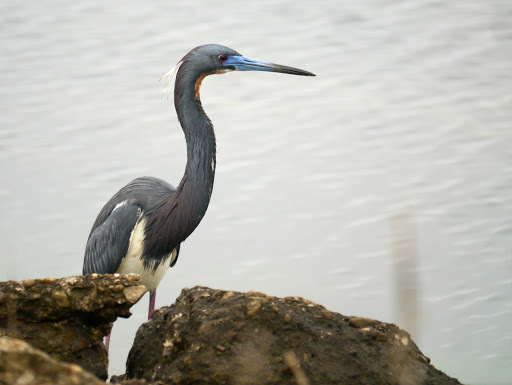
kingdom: Animalia
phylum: Chordata
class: Aves
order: Pelecaniformes
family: Ardeidae
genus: Egretta
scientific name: Egretta tricolor
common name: Tricolored heron
